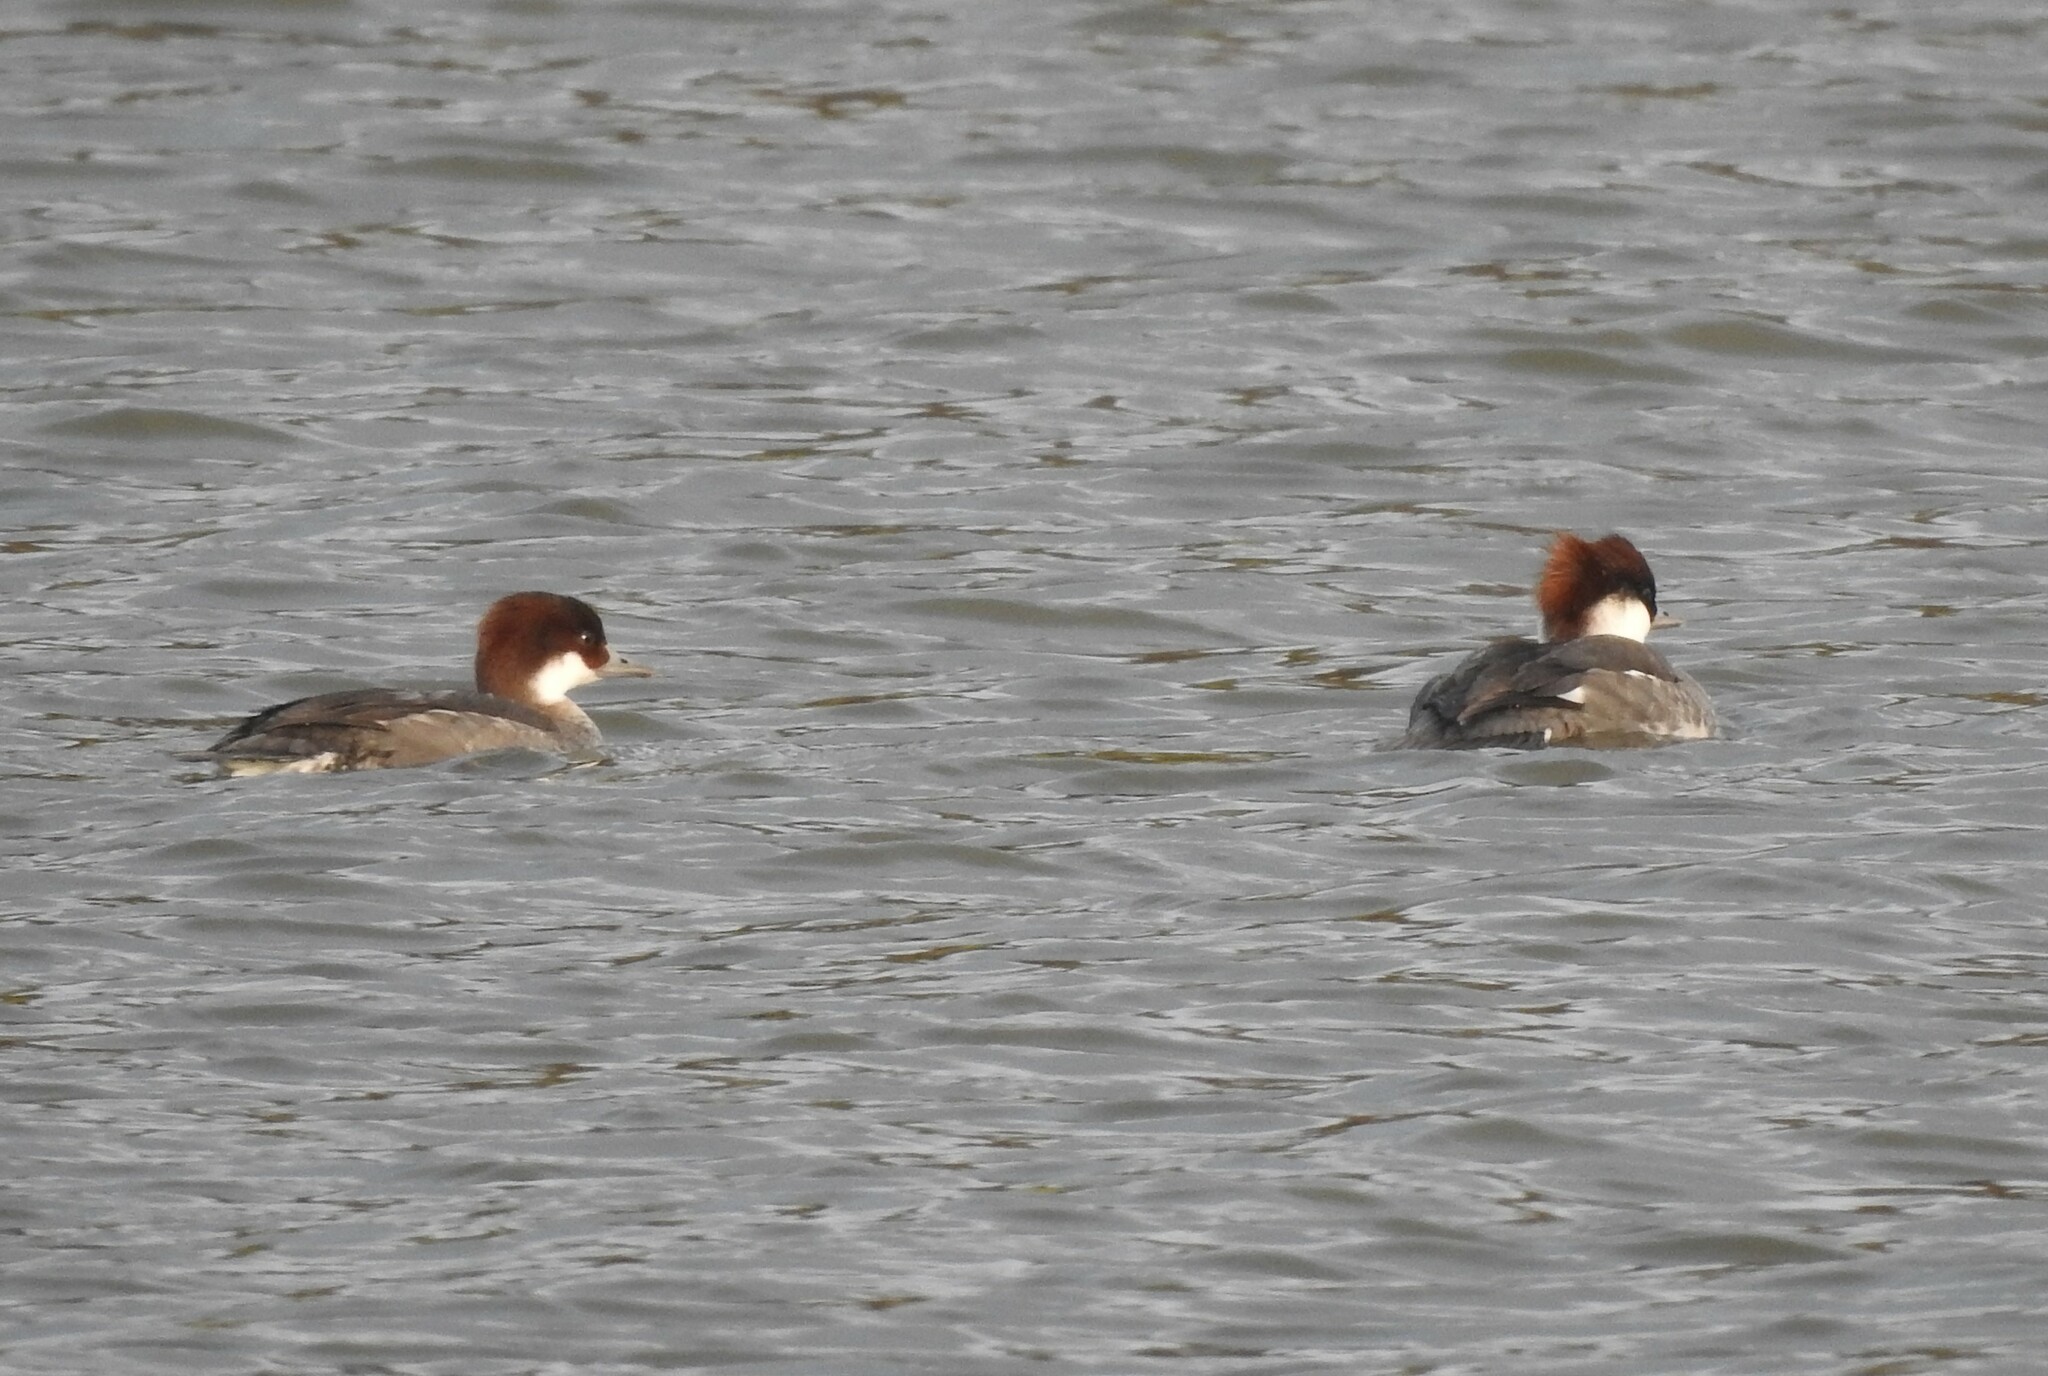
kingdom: Animalia
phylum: Chordata
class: Aves
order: Anseriformes
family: Anatidae
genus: Mergellus
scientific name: Mergellus albellus
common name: Smew
